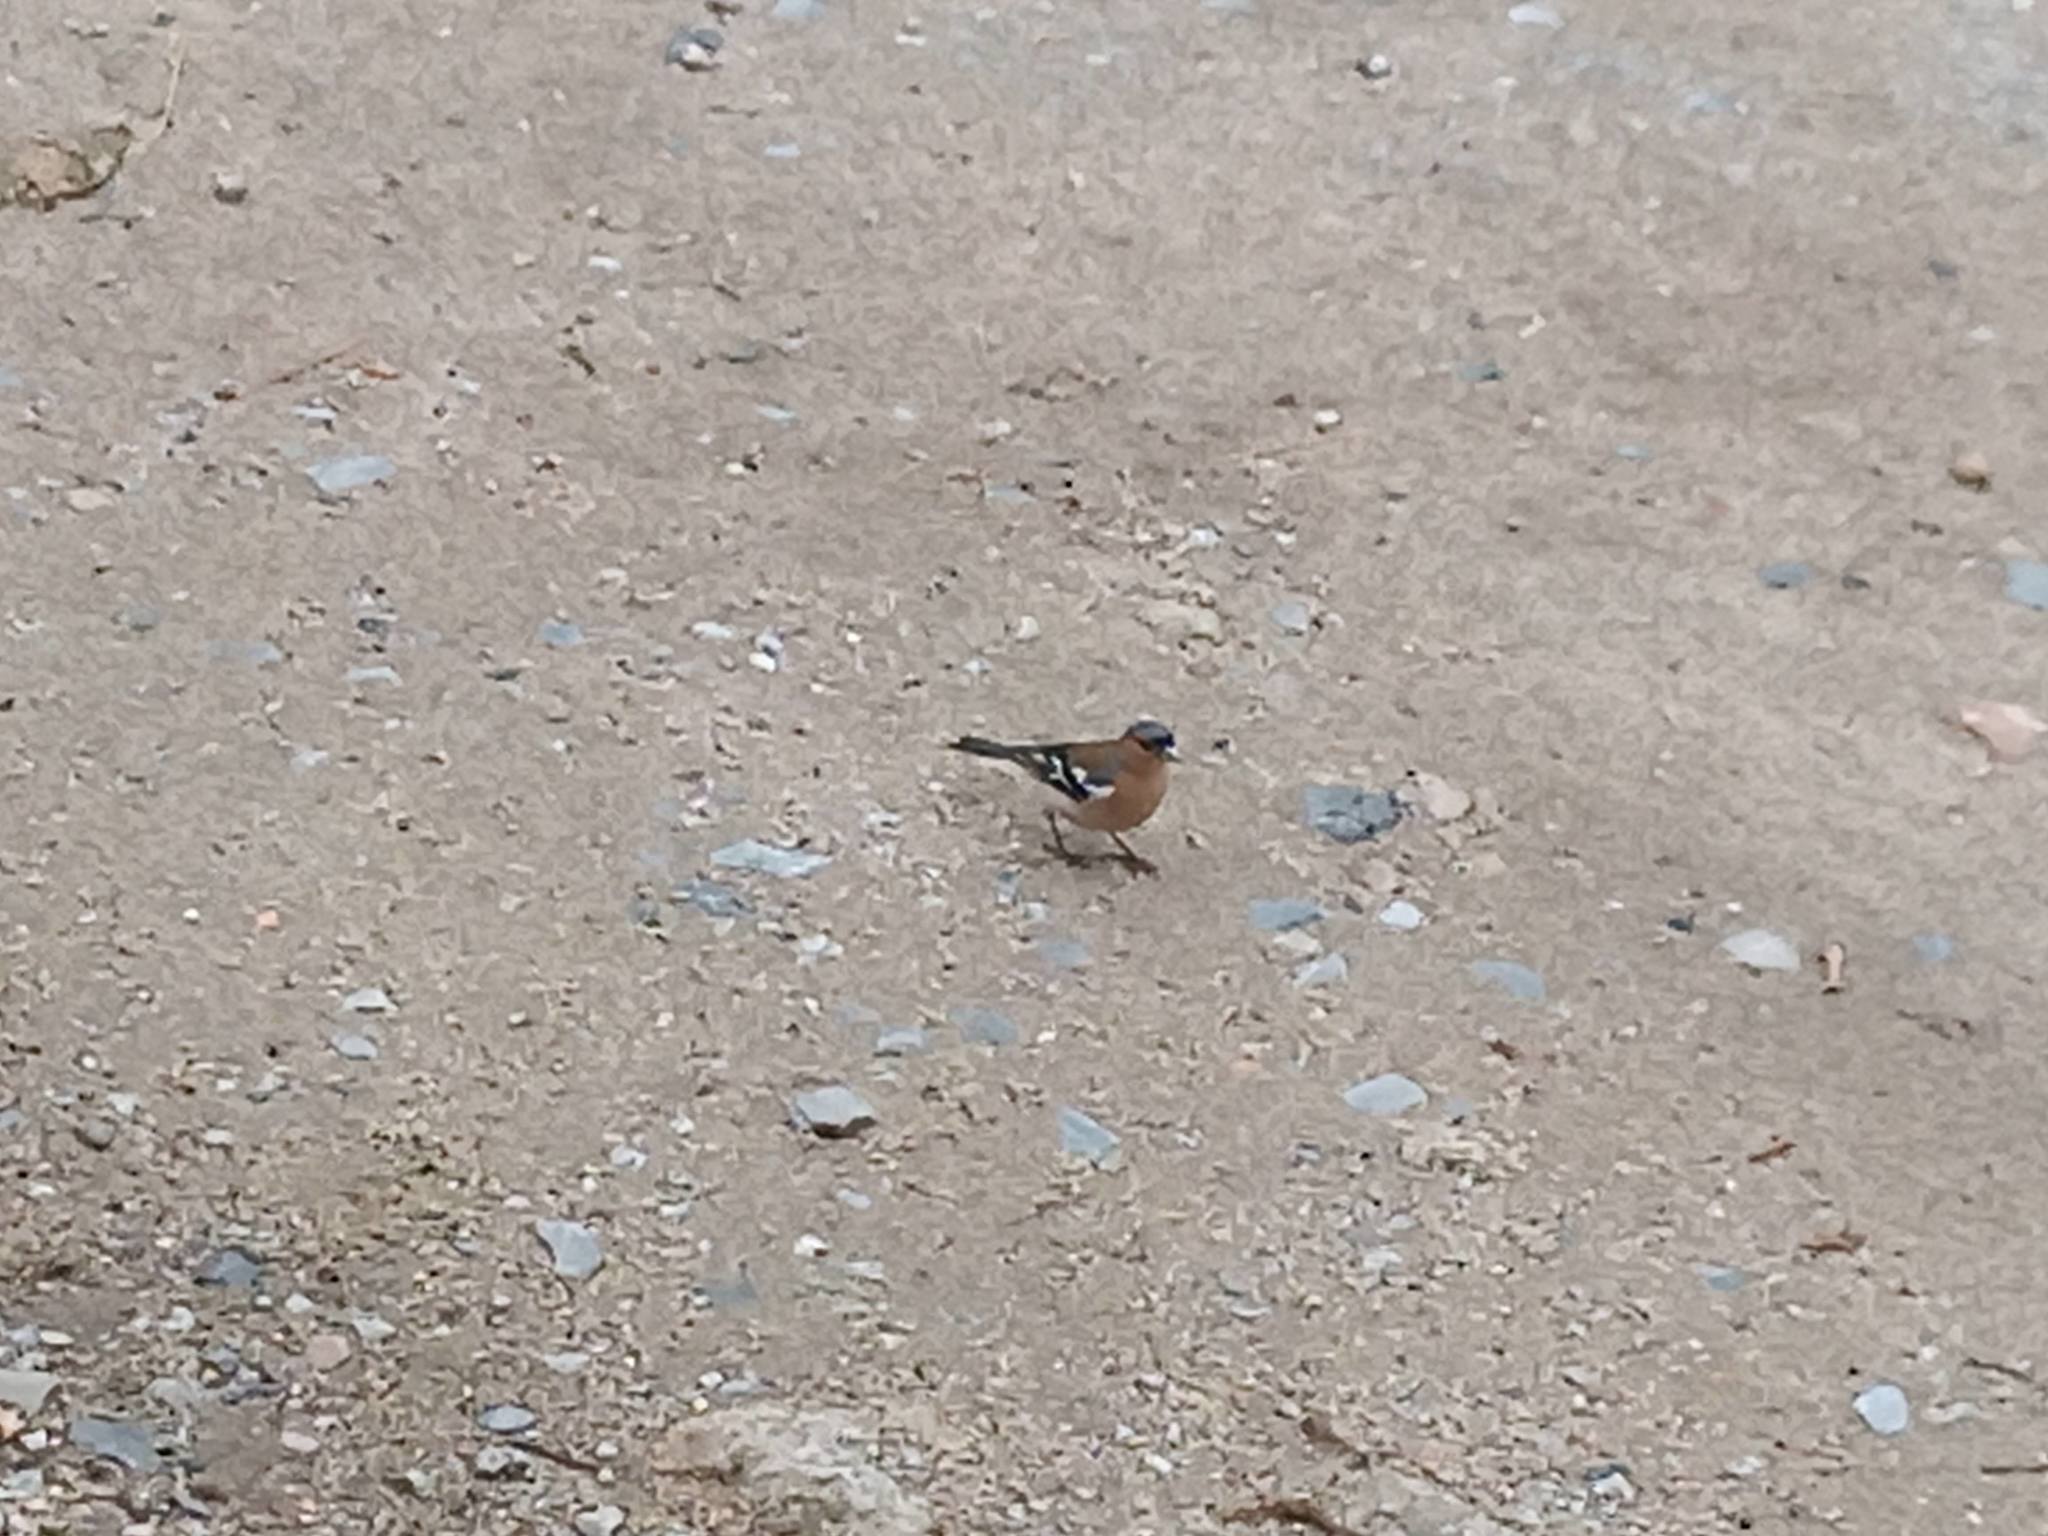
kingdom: Animalia
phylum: Chordata
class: Aves
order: Passeriformes
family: Fringillidae
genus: Fringilla
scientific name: Fringilla coelebs
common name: Common chaffinch
